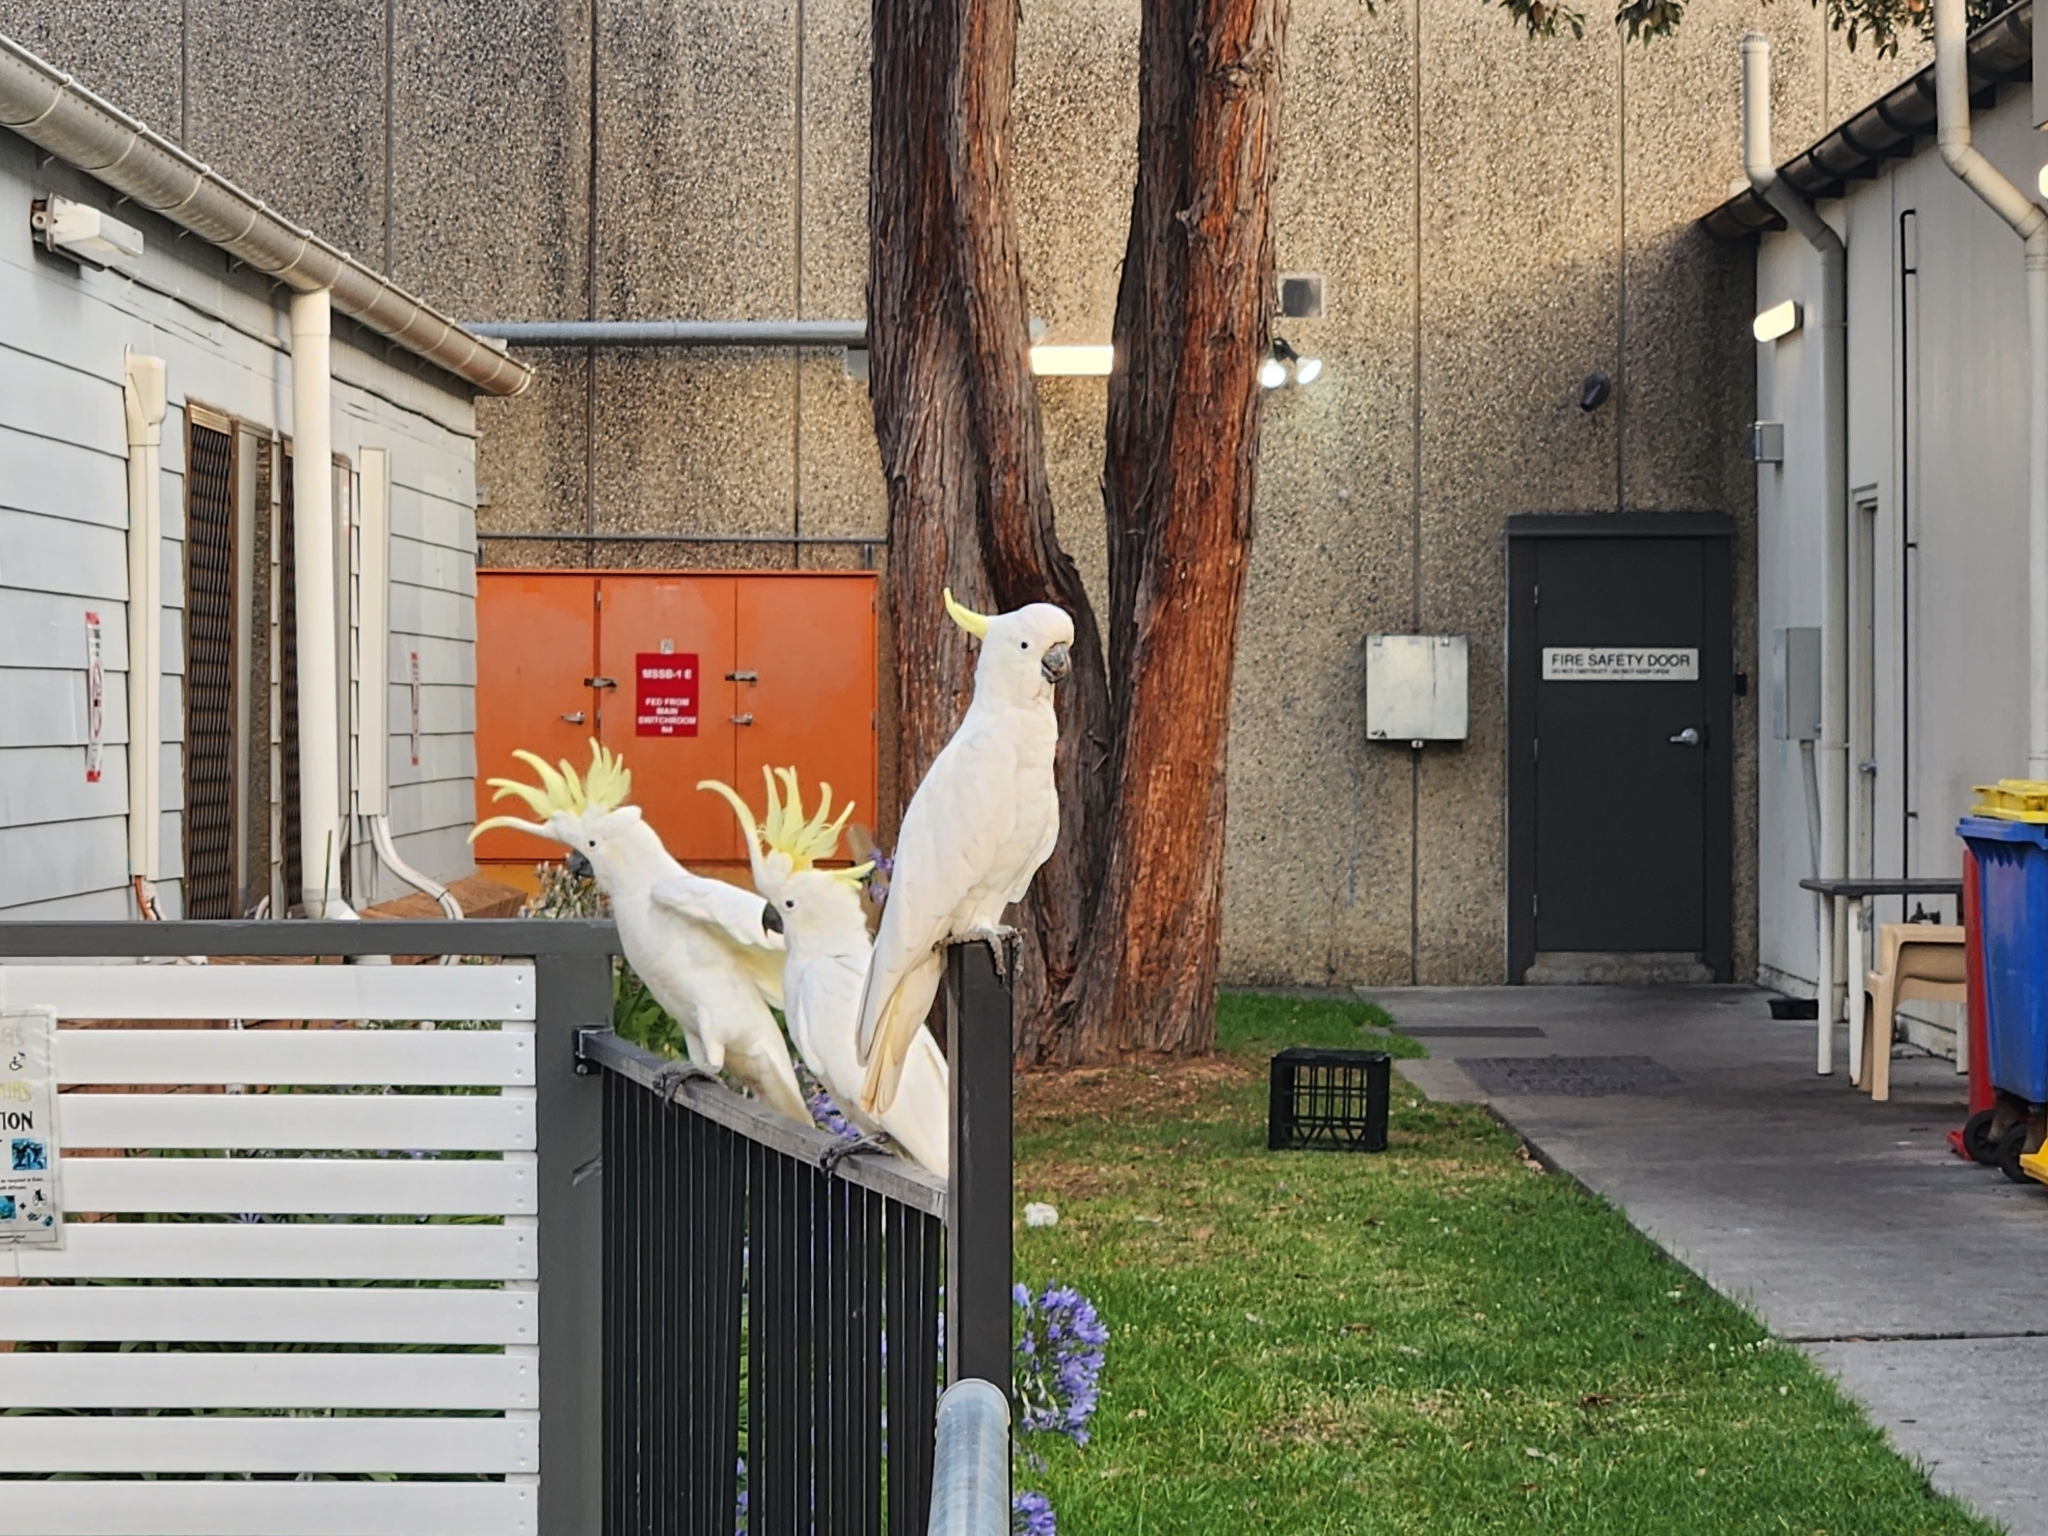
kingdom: Animalia
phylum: Chordata
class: Aves
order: Psittaciformes
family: Psittacidae
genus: Cacatua
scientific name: Cacatua galerita
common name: Sulphur-crested cockatoo
